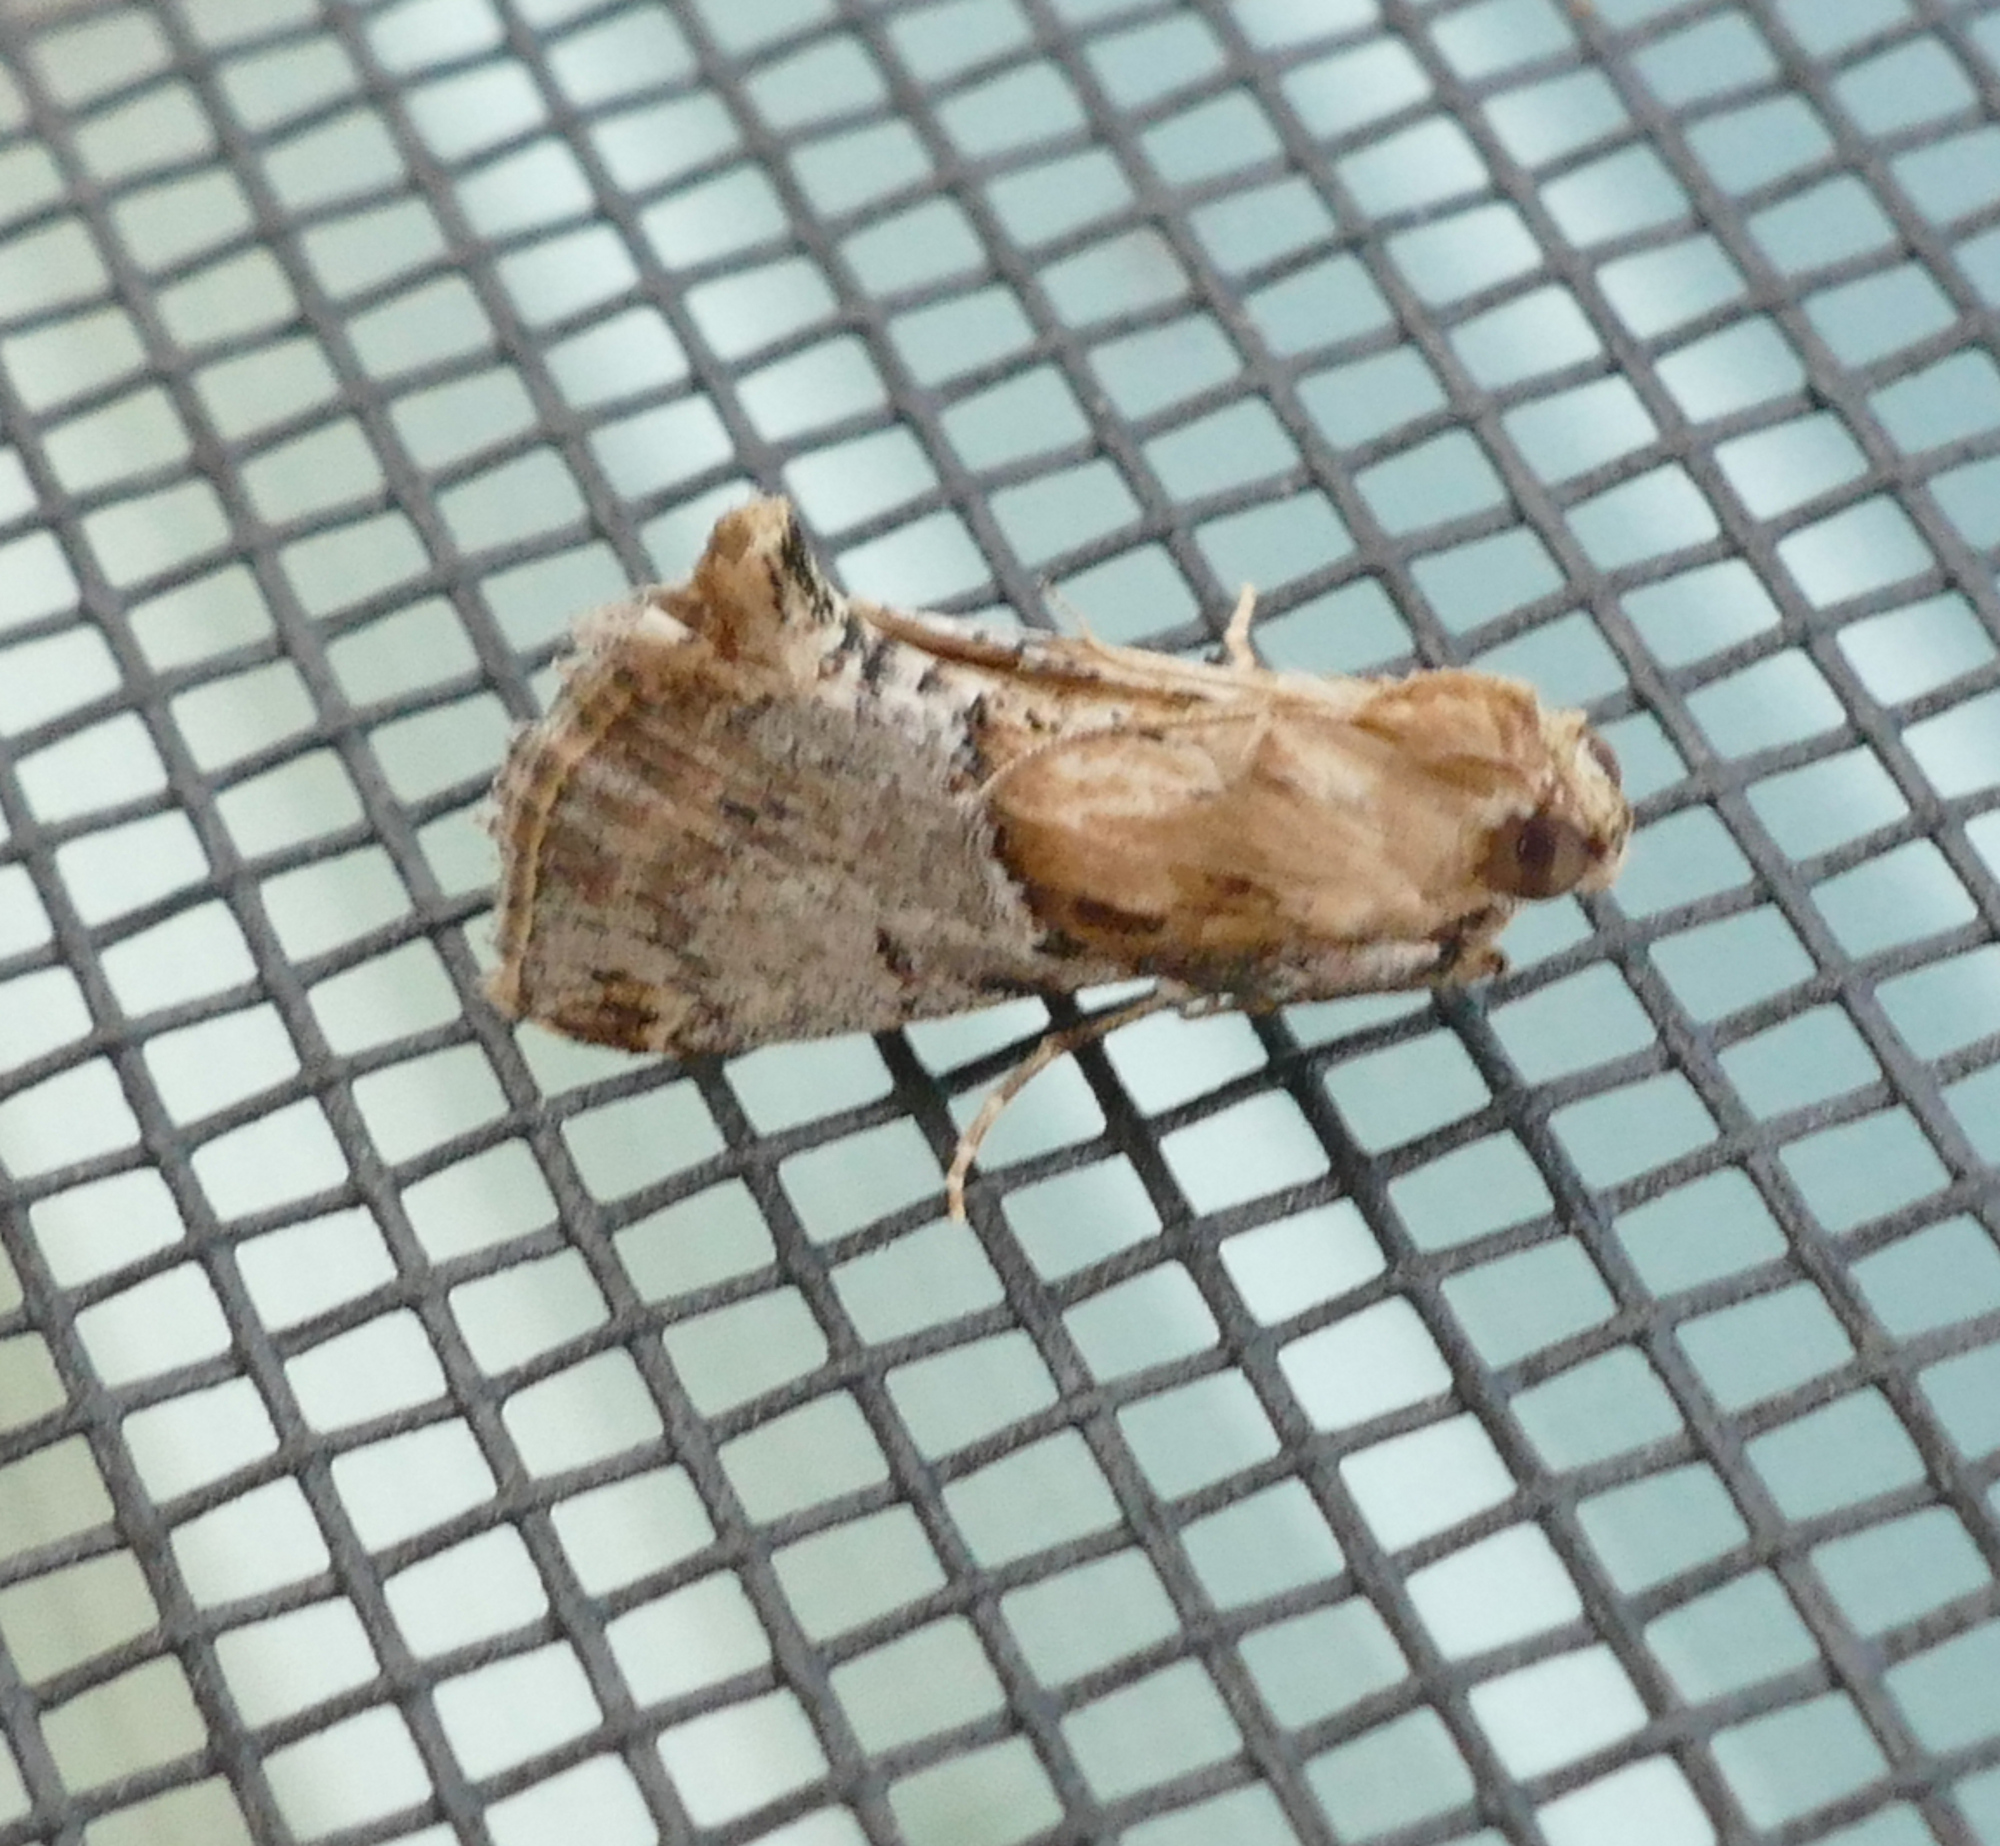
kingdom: Animalia
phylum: Arthropoda
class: Insecta
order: Lepidoptera
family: Pyralidae
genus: Cacozelia
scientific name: Cacozelia elegans
